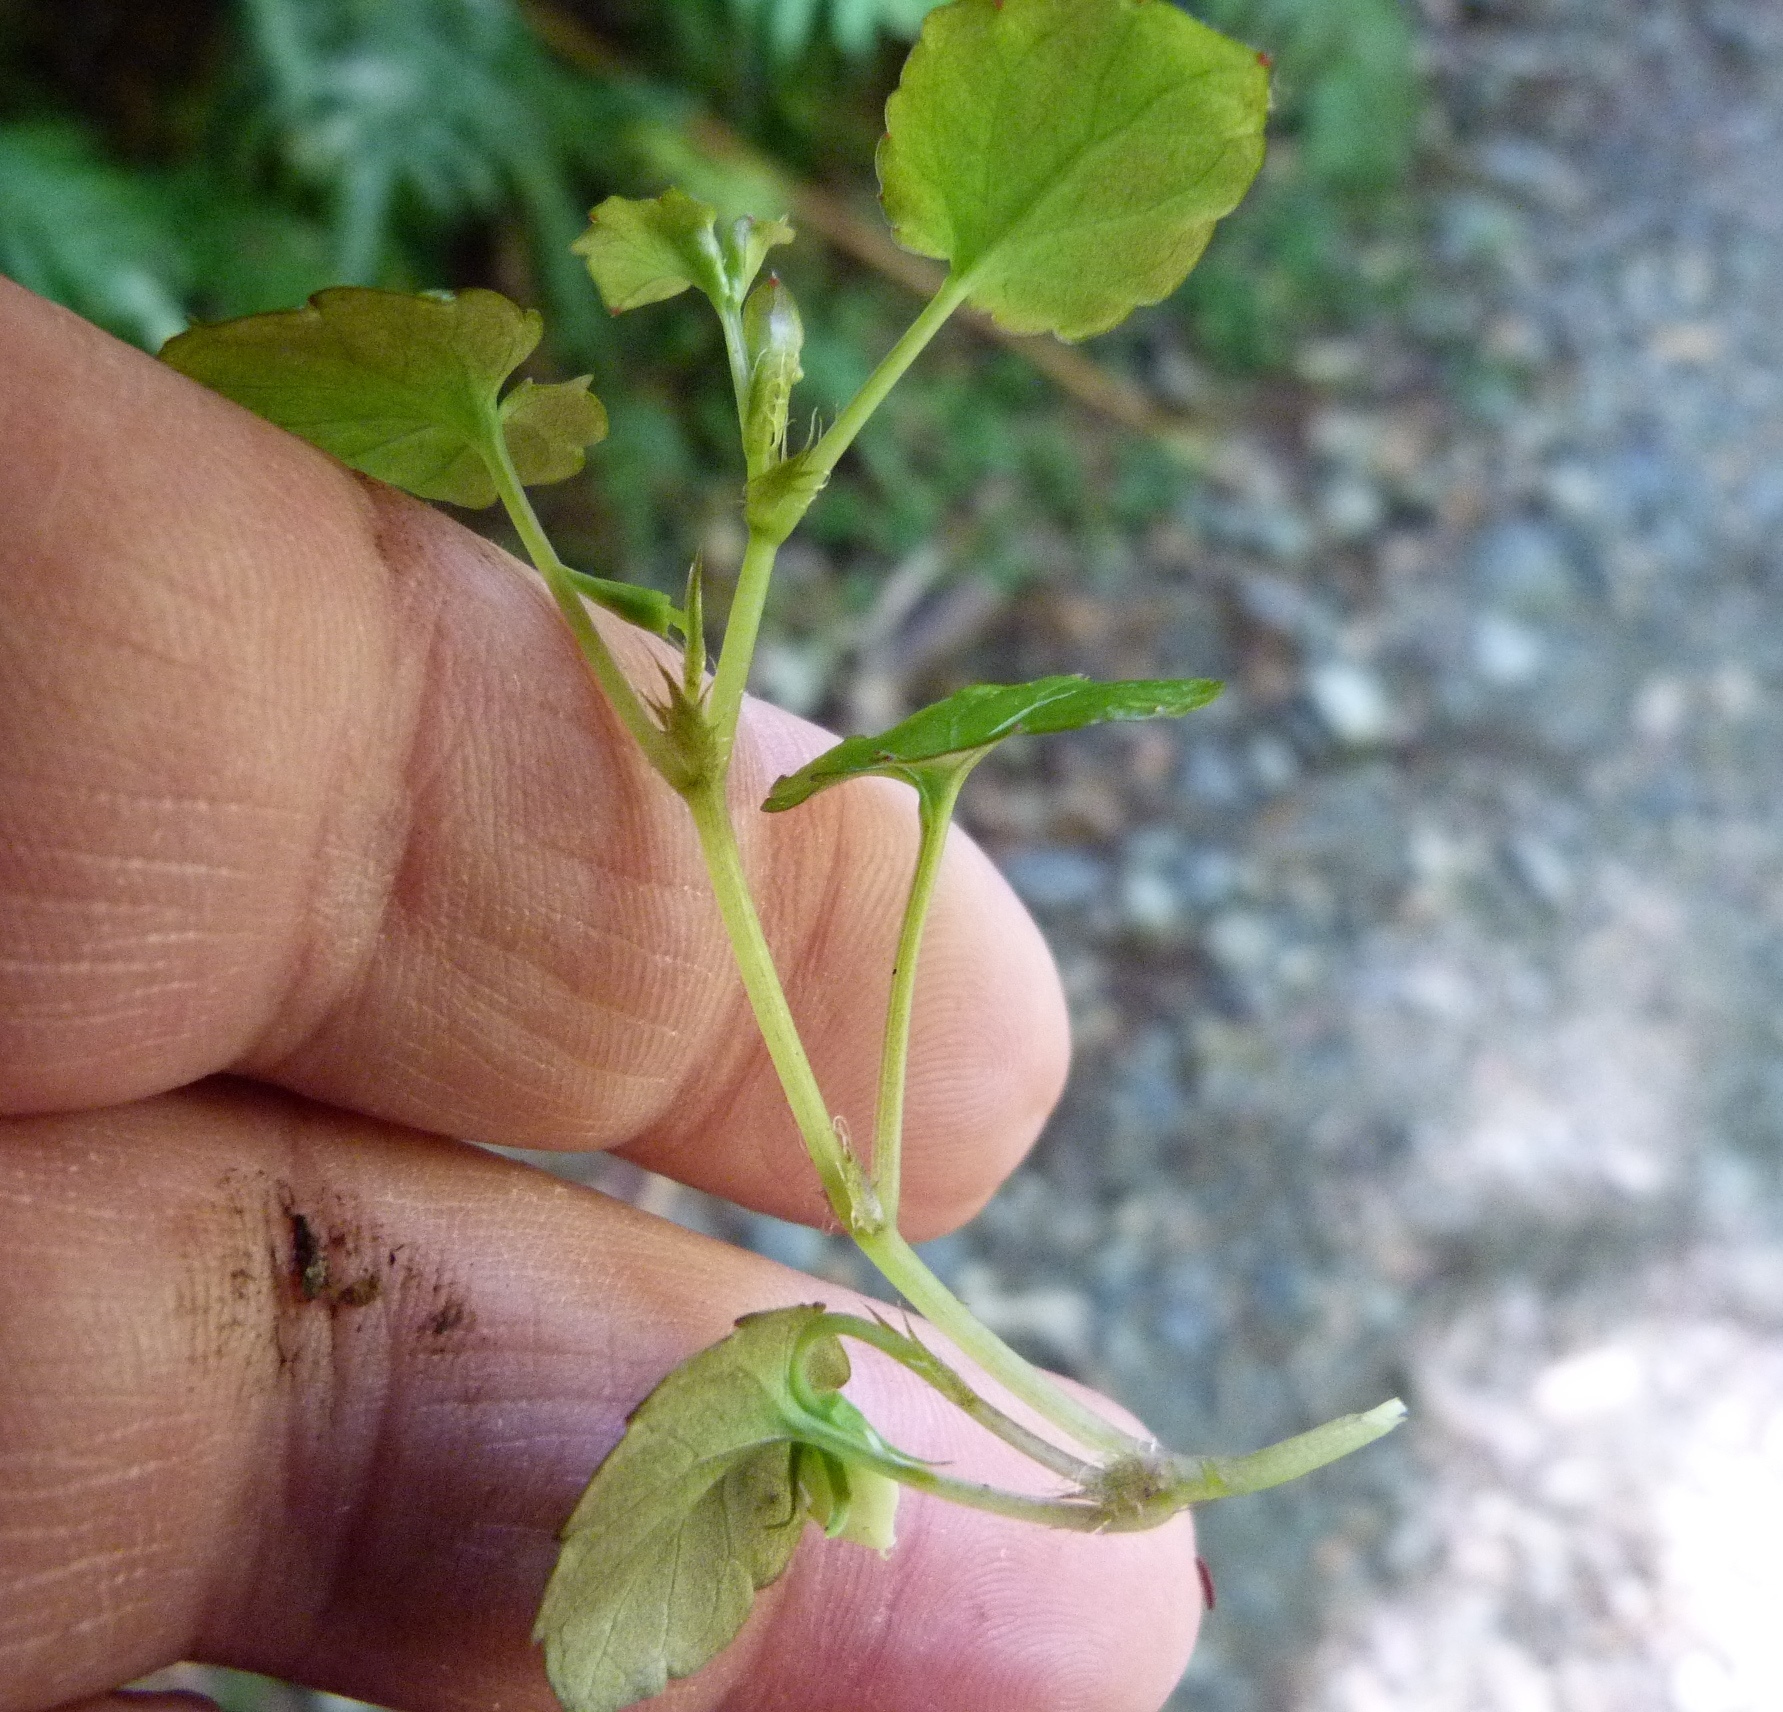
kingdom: Plantae
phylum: Tracheophyta
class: Magnoliopsida
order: Malpighiales
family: Violaceae
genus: Viola
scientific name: Viola filicaulis
